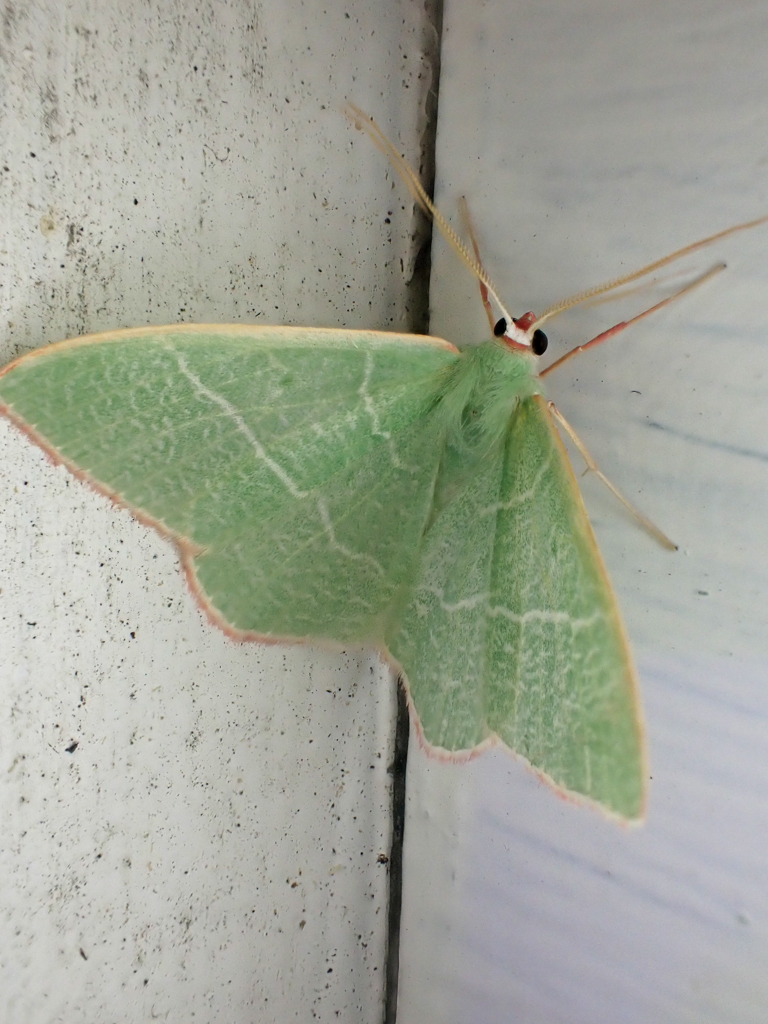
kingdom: Animalia
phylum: Arthropoda
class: Insecta
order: Lepidoptera
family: Geometridae
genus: Nemoria
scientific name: Nemoria leptalea
